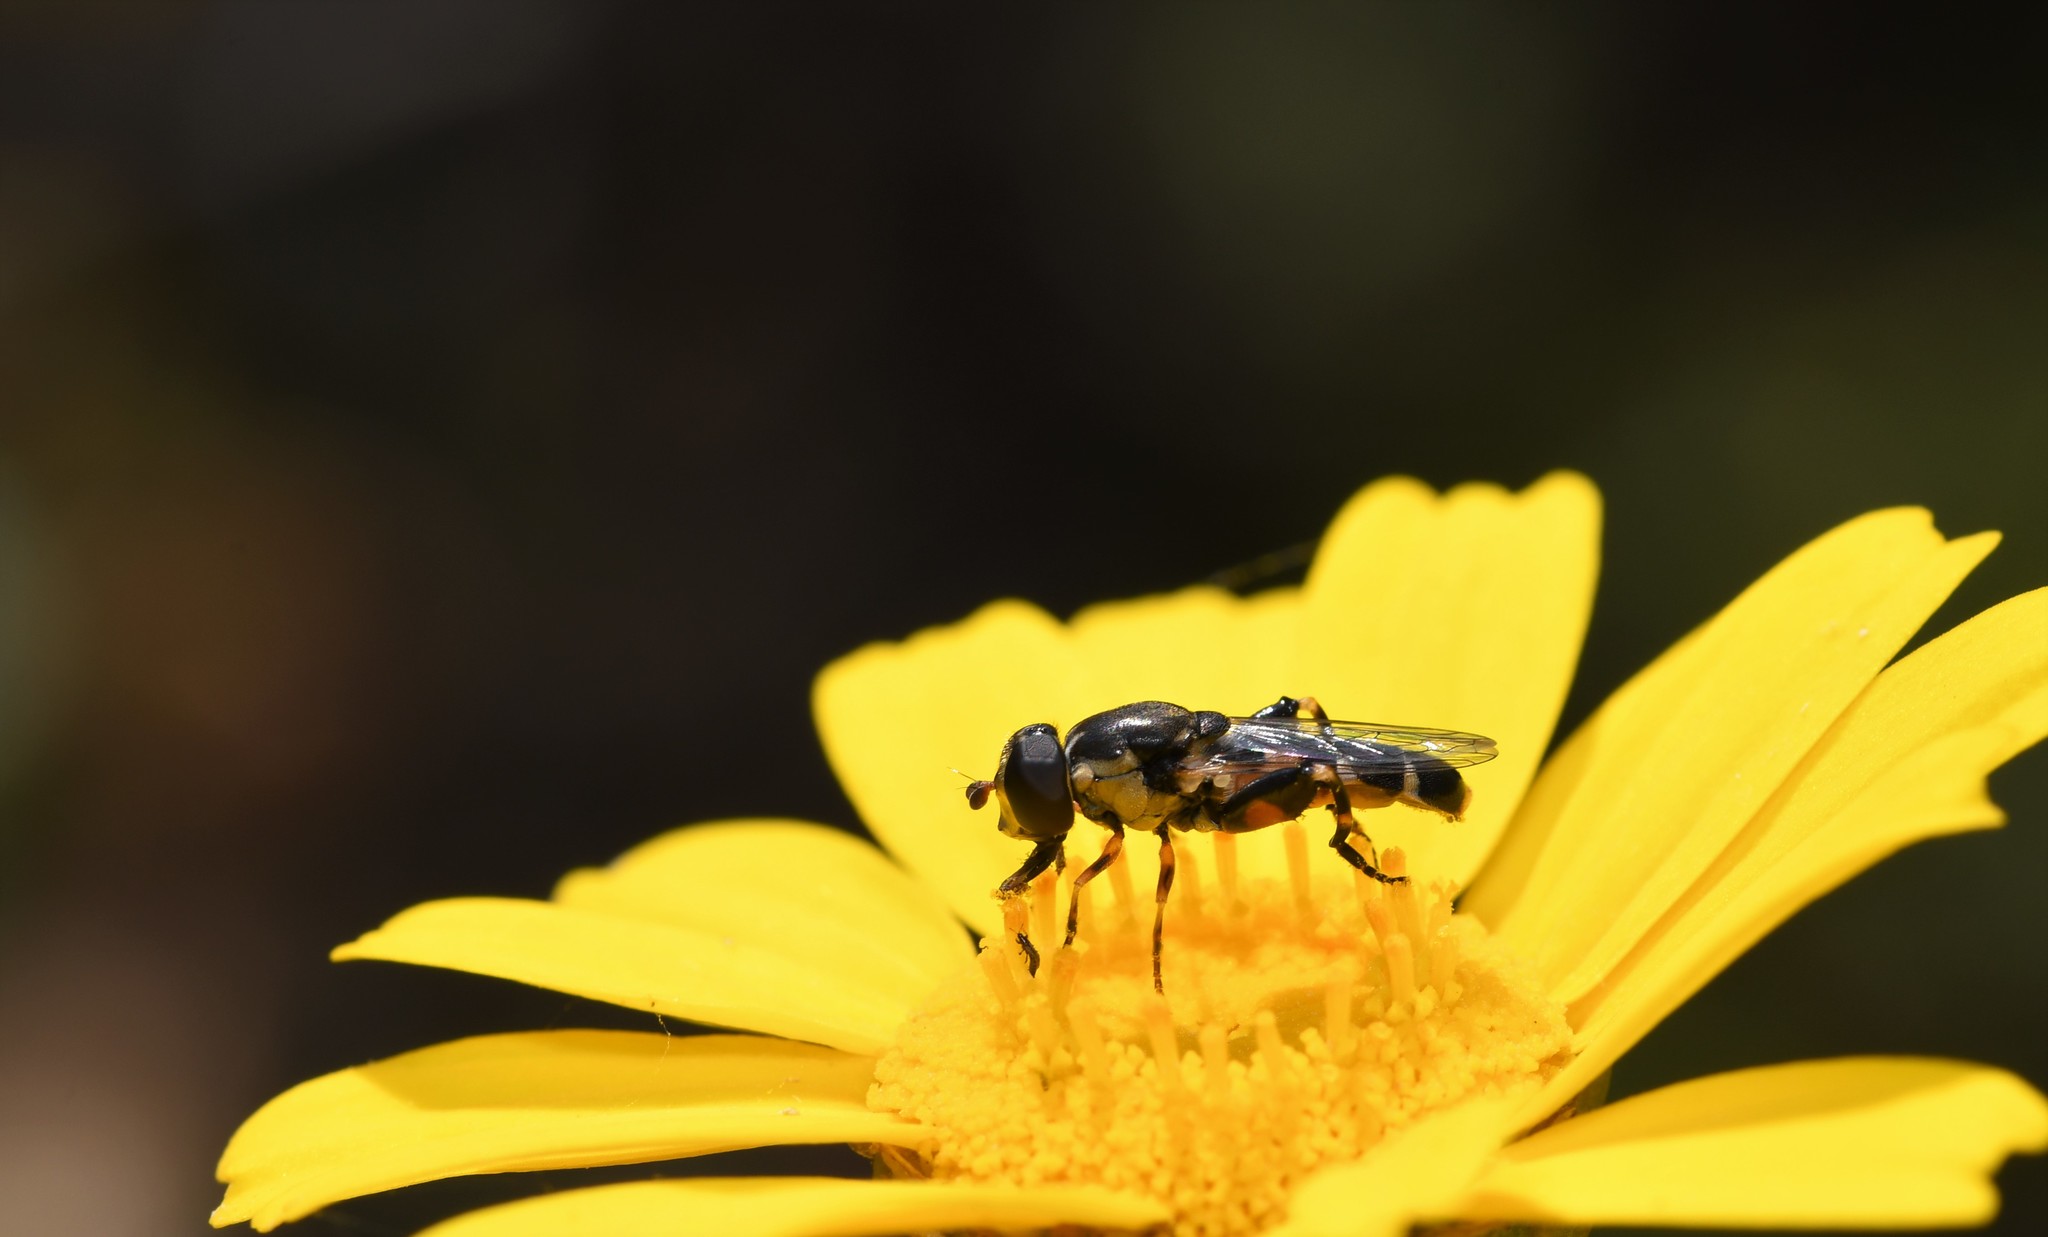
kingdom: Animalia
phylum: Arthropoda
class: Insecta
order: Diptera
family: Syrphidae
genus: Syritta
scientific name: Syritta pipiens
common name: Hover fly
